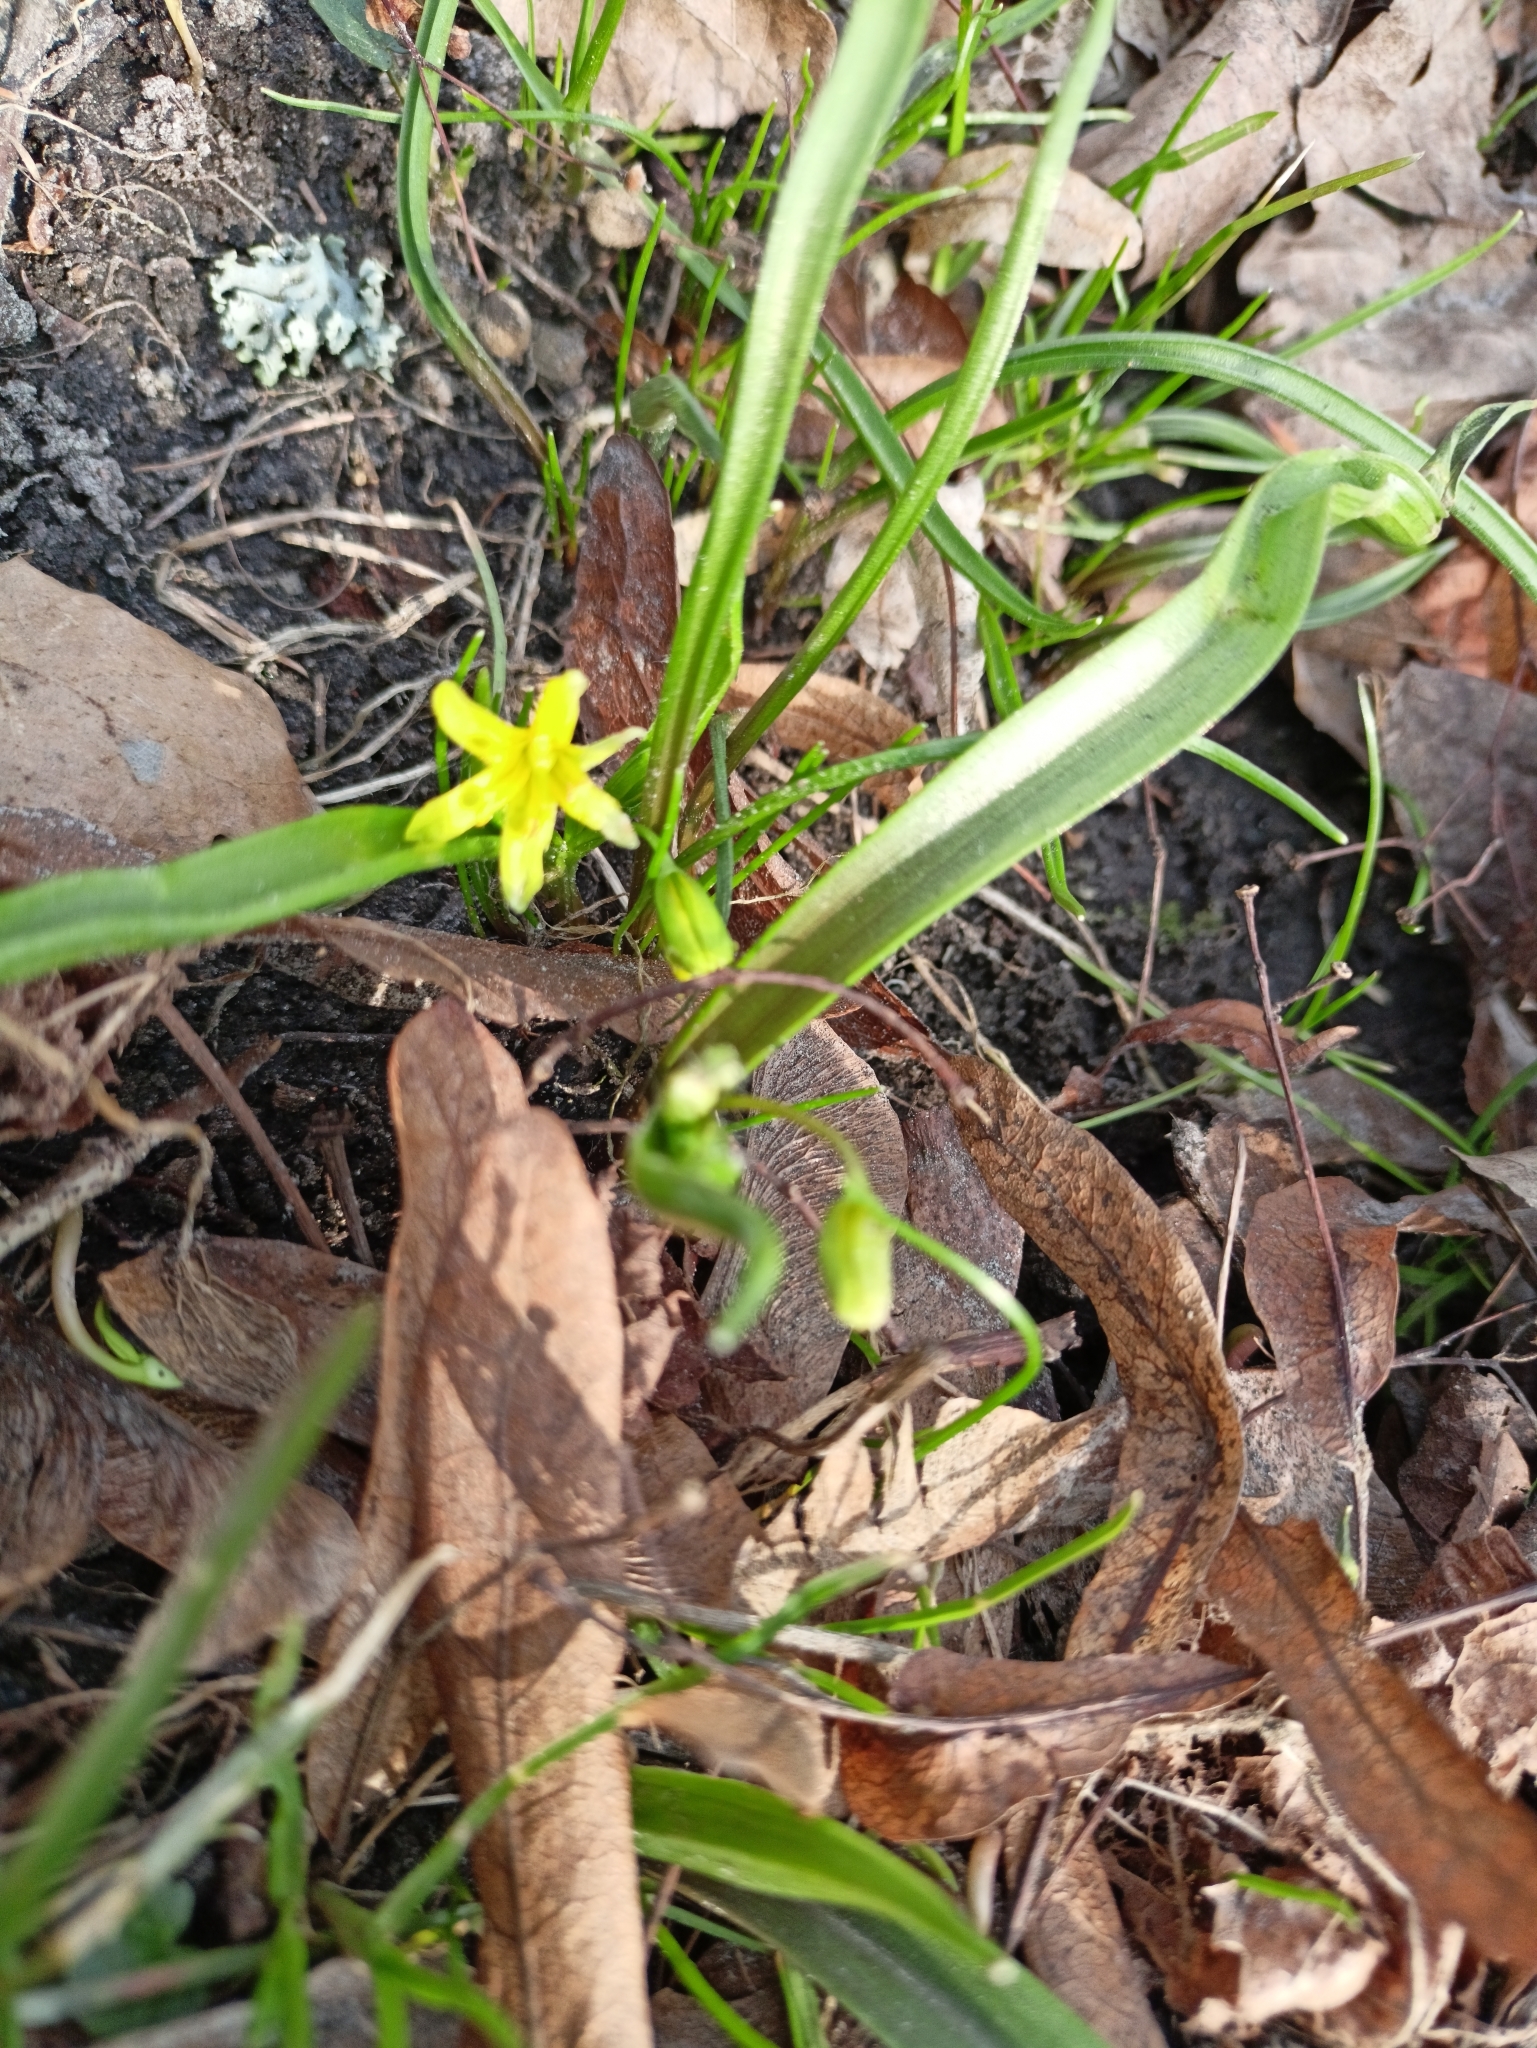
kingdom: Plantae
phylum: Tracheophyta
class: Liliopsida
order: Liliales
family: Liliaceae
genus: Gagea
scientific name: Gagea lutea
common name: Yellow star-of-bethlehem
